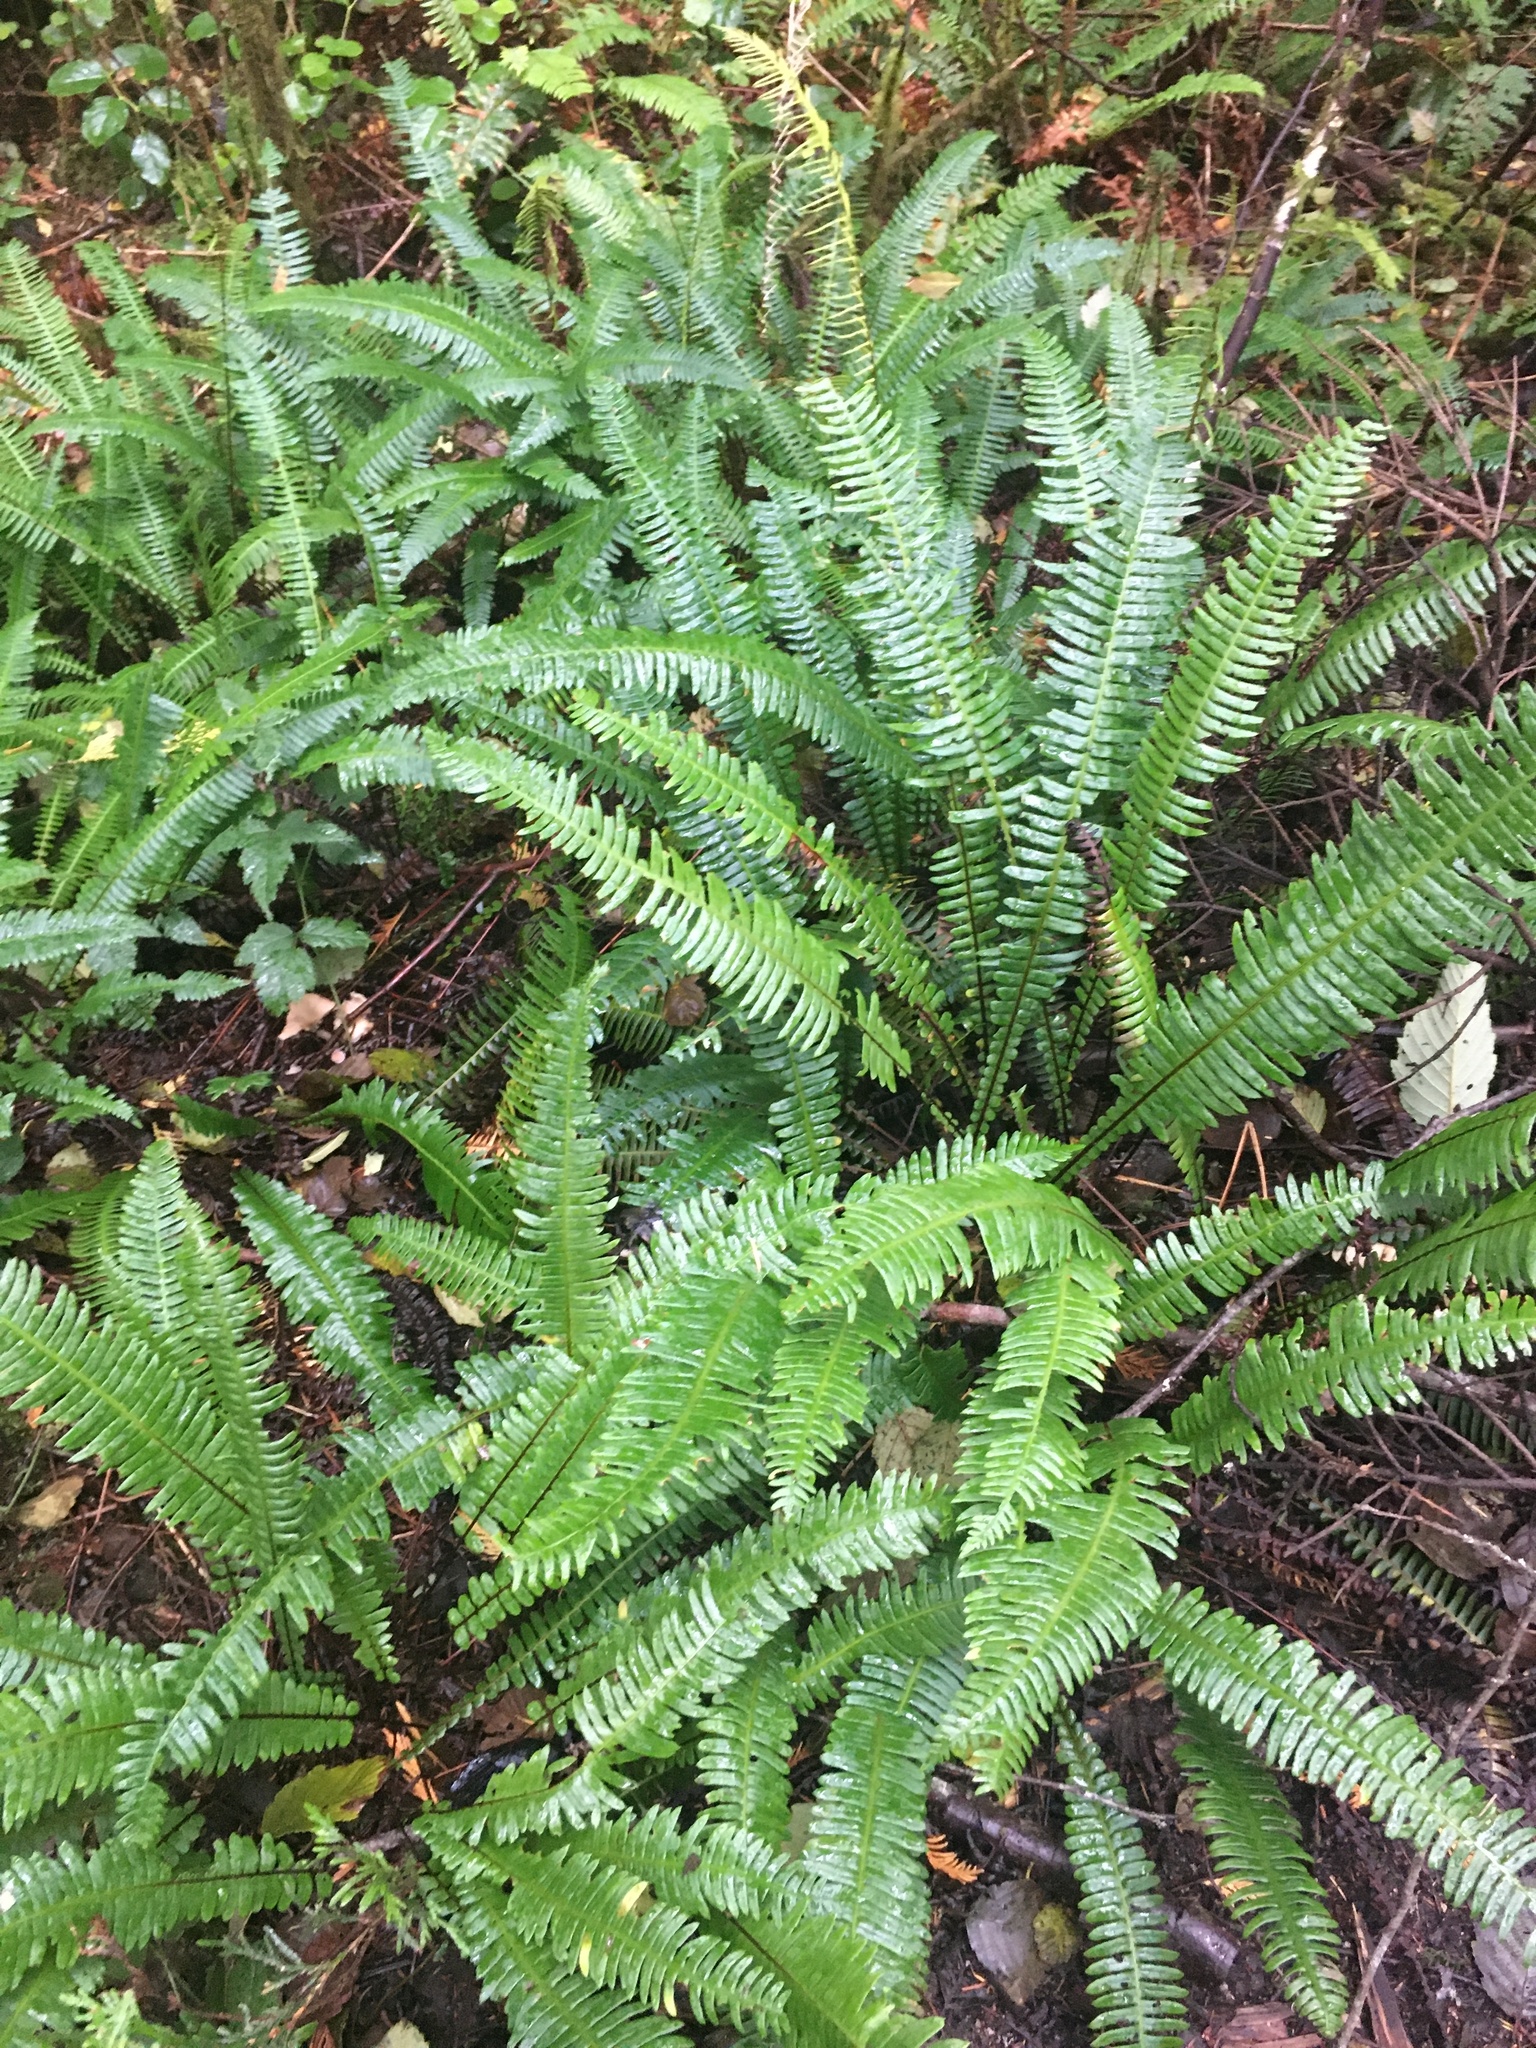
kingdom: Plantae
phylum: Tracheophyta
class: Polypodiopsida
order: Polypodiales
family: Blechnaceae
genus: Struthiopteris
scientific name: Struthiopteris spicant
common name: Deer fern
